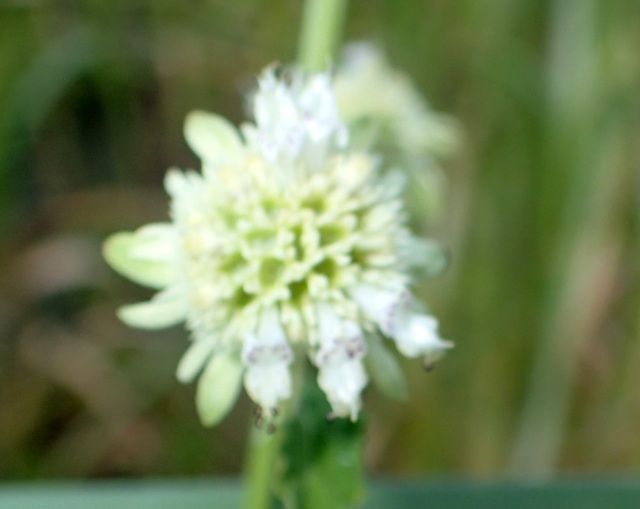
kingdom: Plantae
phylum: Tracheophyta
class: Magnoliopsida
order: Lamiales
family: Lamiaceae
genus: Hyptis
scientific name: Hyptis alata
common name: Cluster bush-mint
